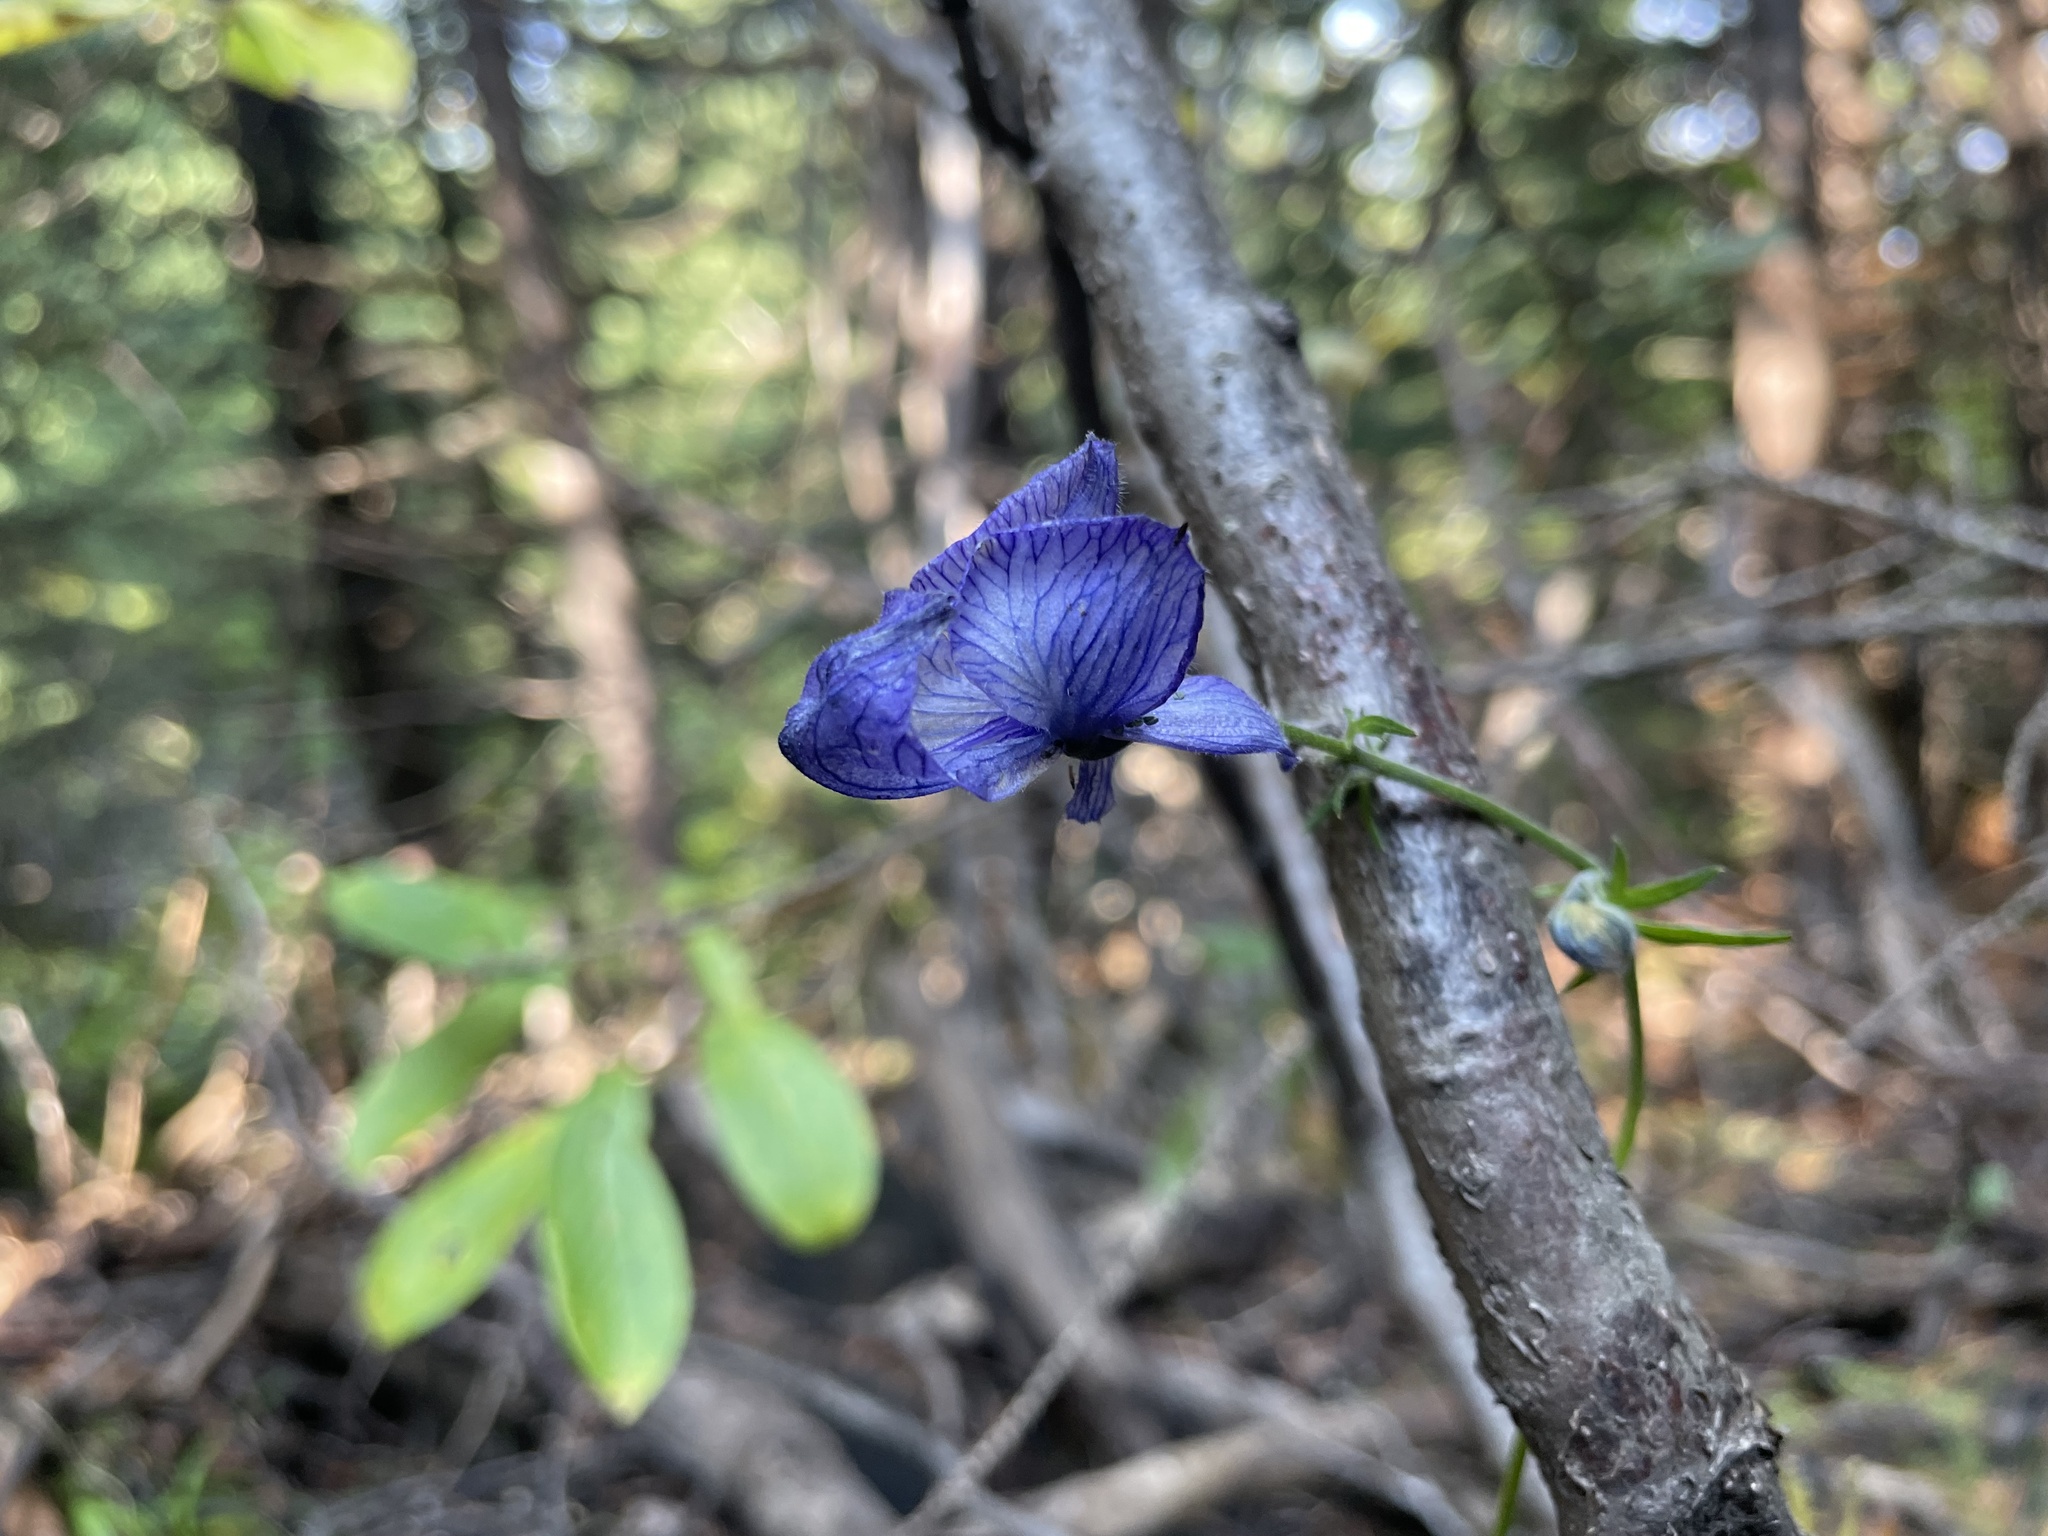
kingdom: Plantae
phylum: Tracheophyta
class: Magnoliopsida
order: Ranunculales
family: Ranunculaceae
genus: Aconitum
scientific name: Aconitum delphiniifolium
